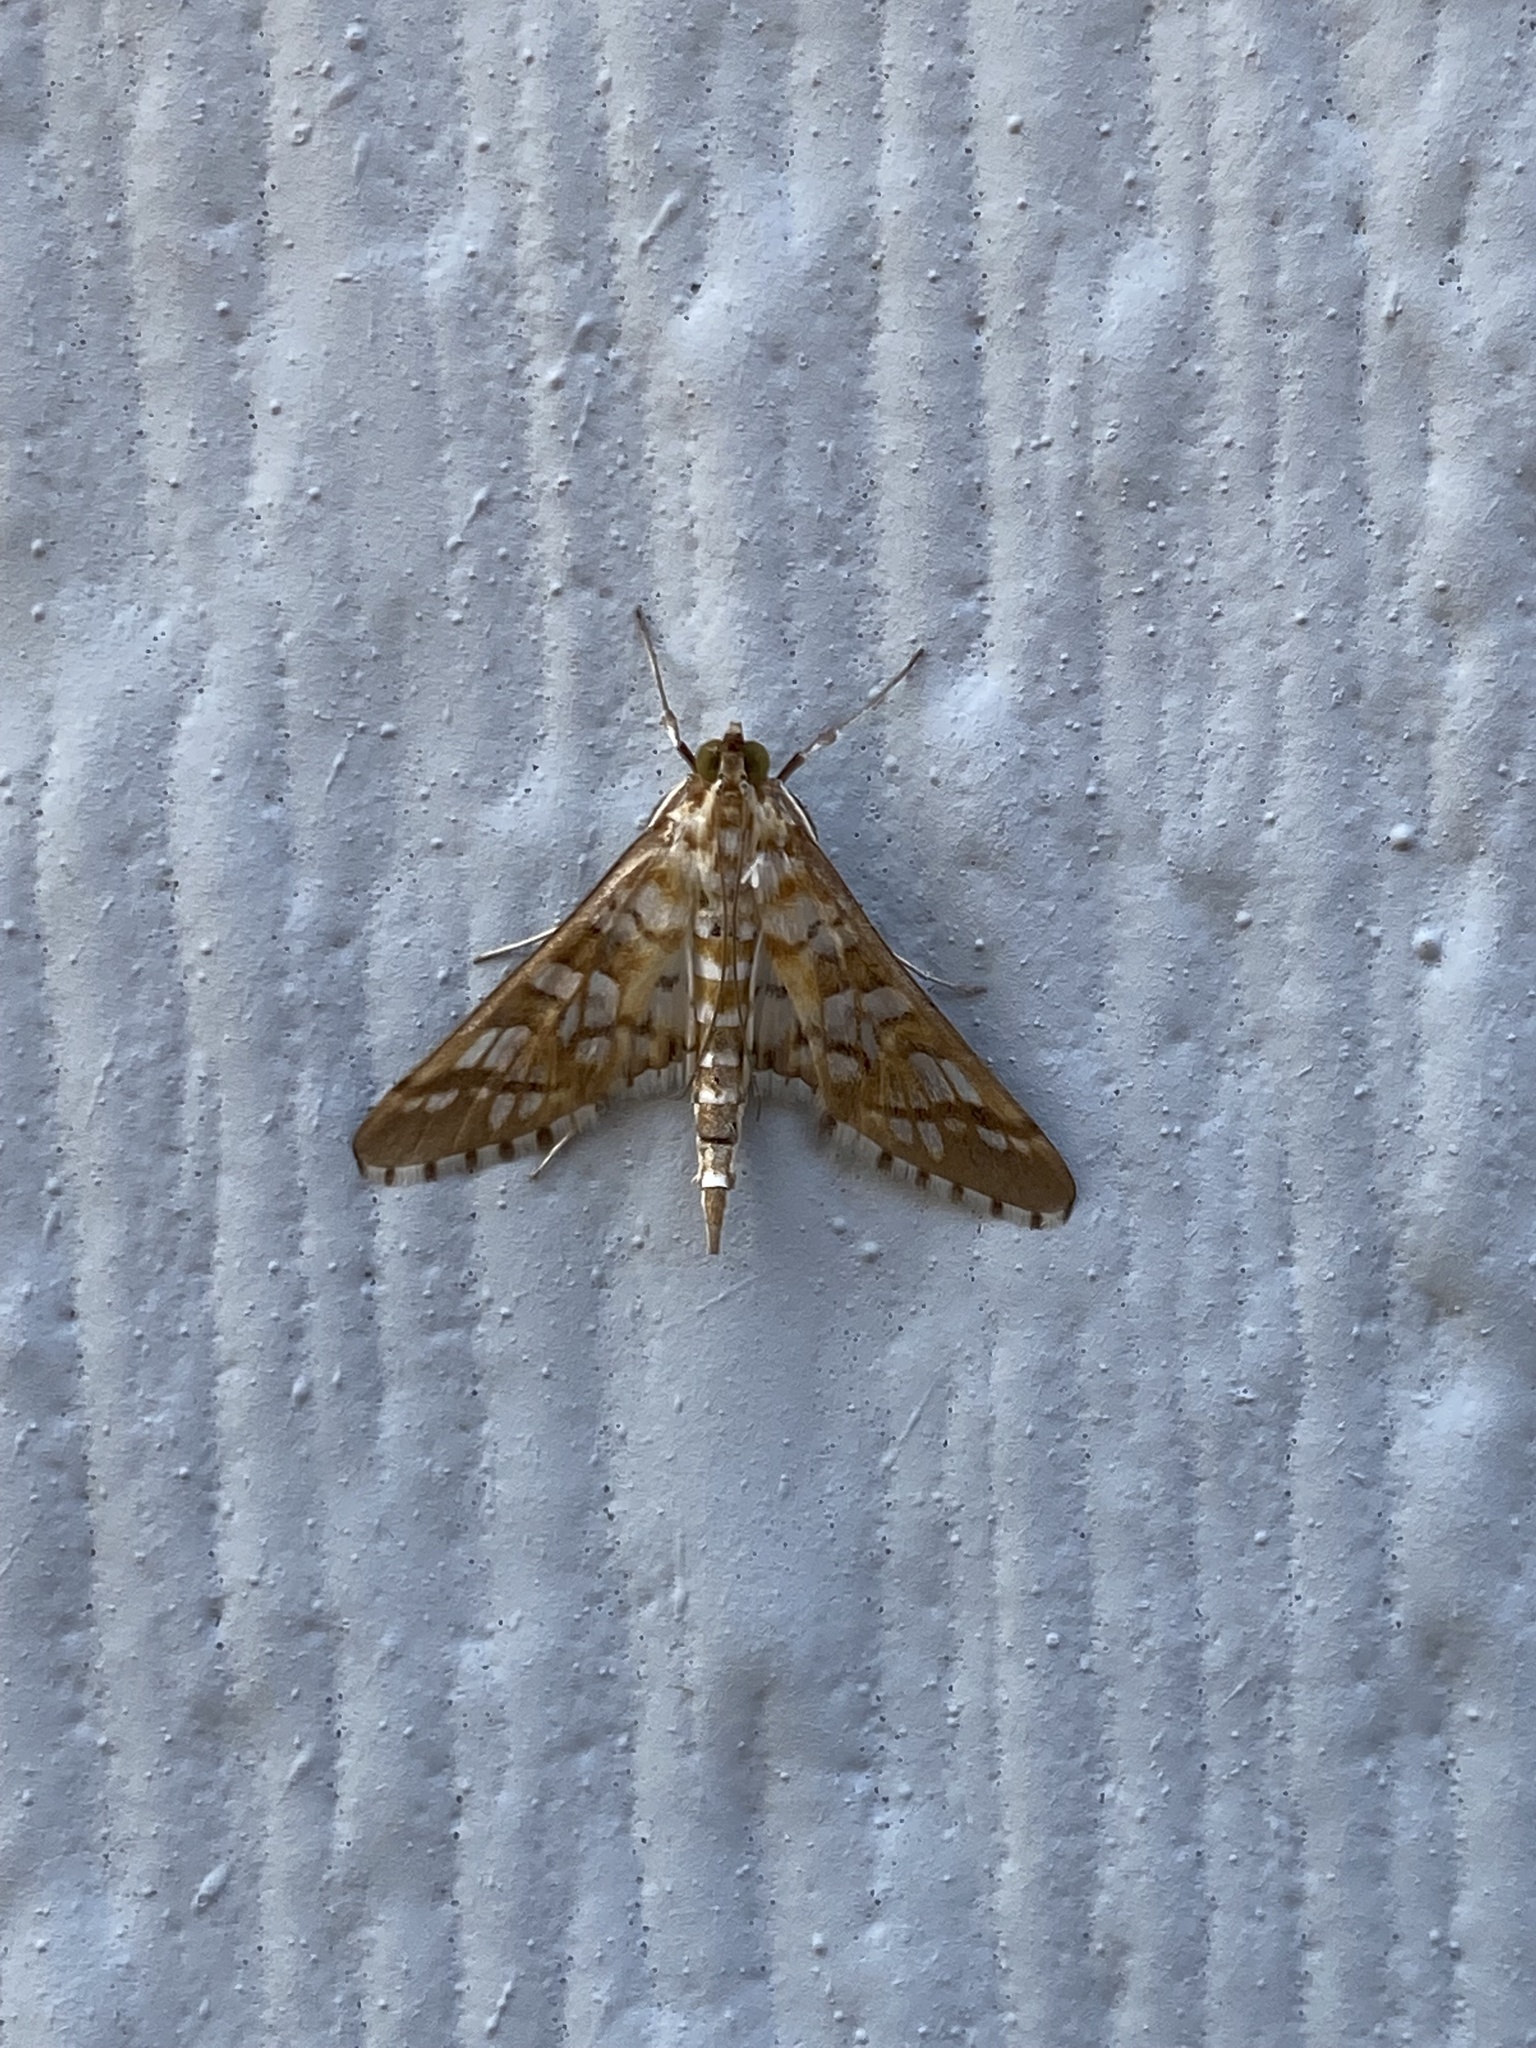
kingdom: Animalia
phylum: Arthropoda
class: Insecta
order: Lepidoptera
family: Crambidae
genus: Epipagis
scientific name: Epipagis fenestralis
